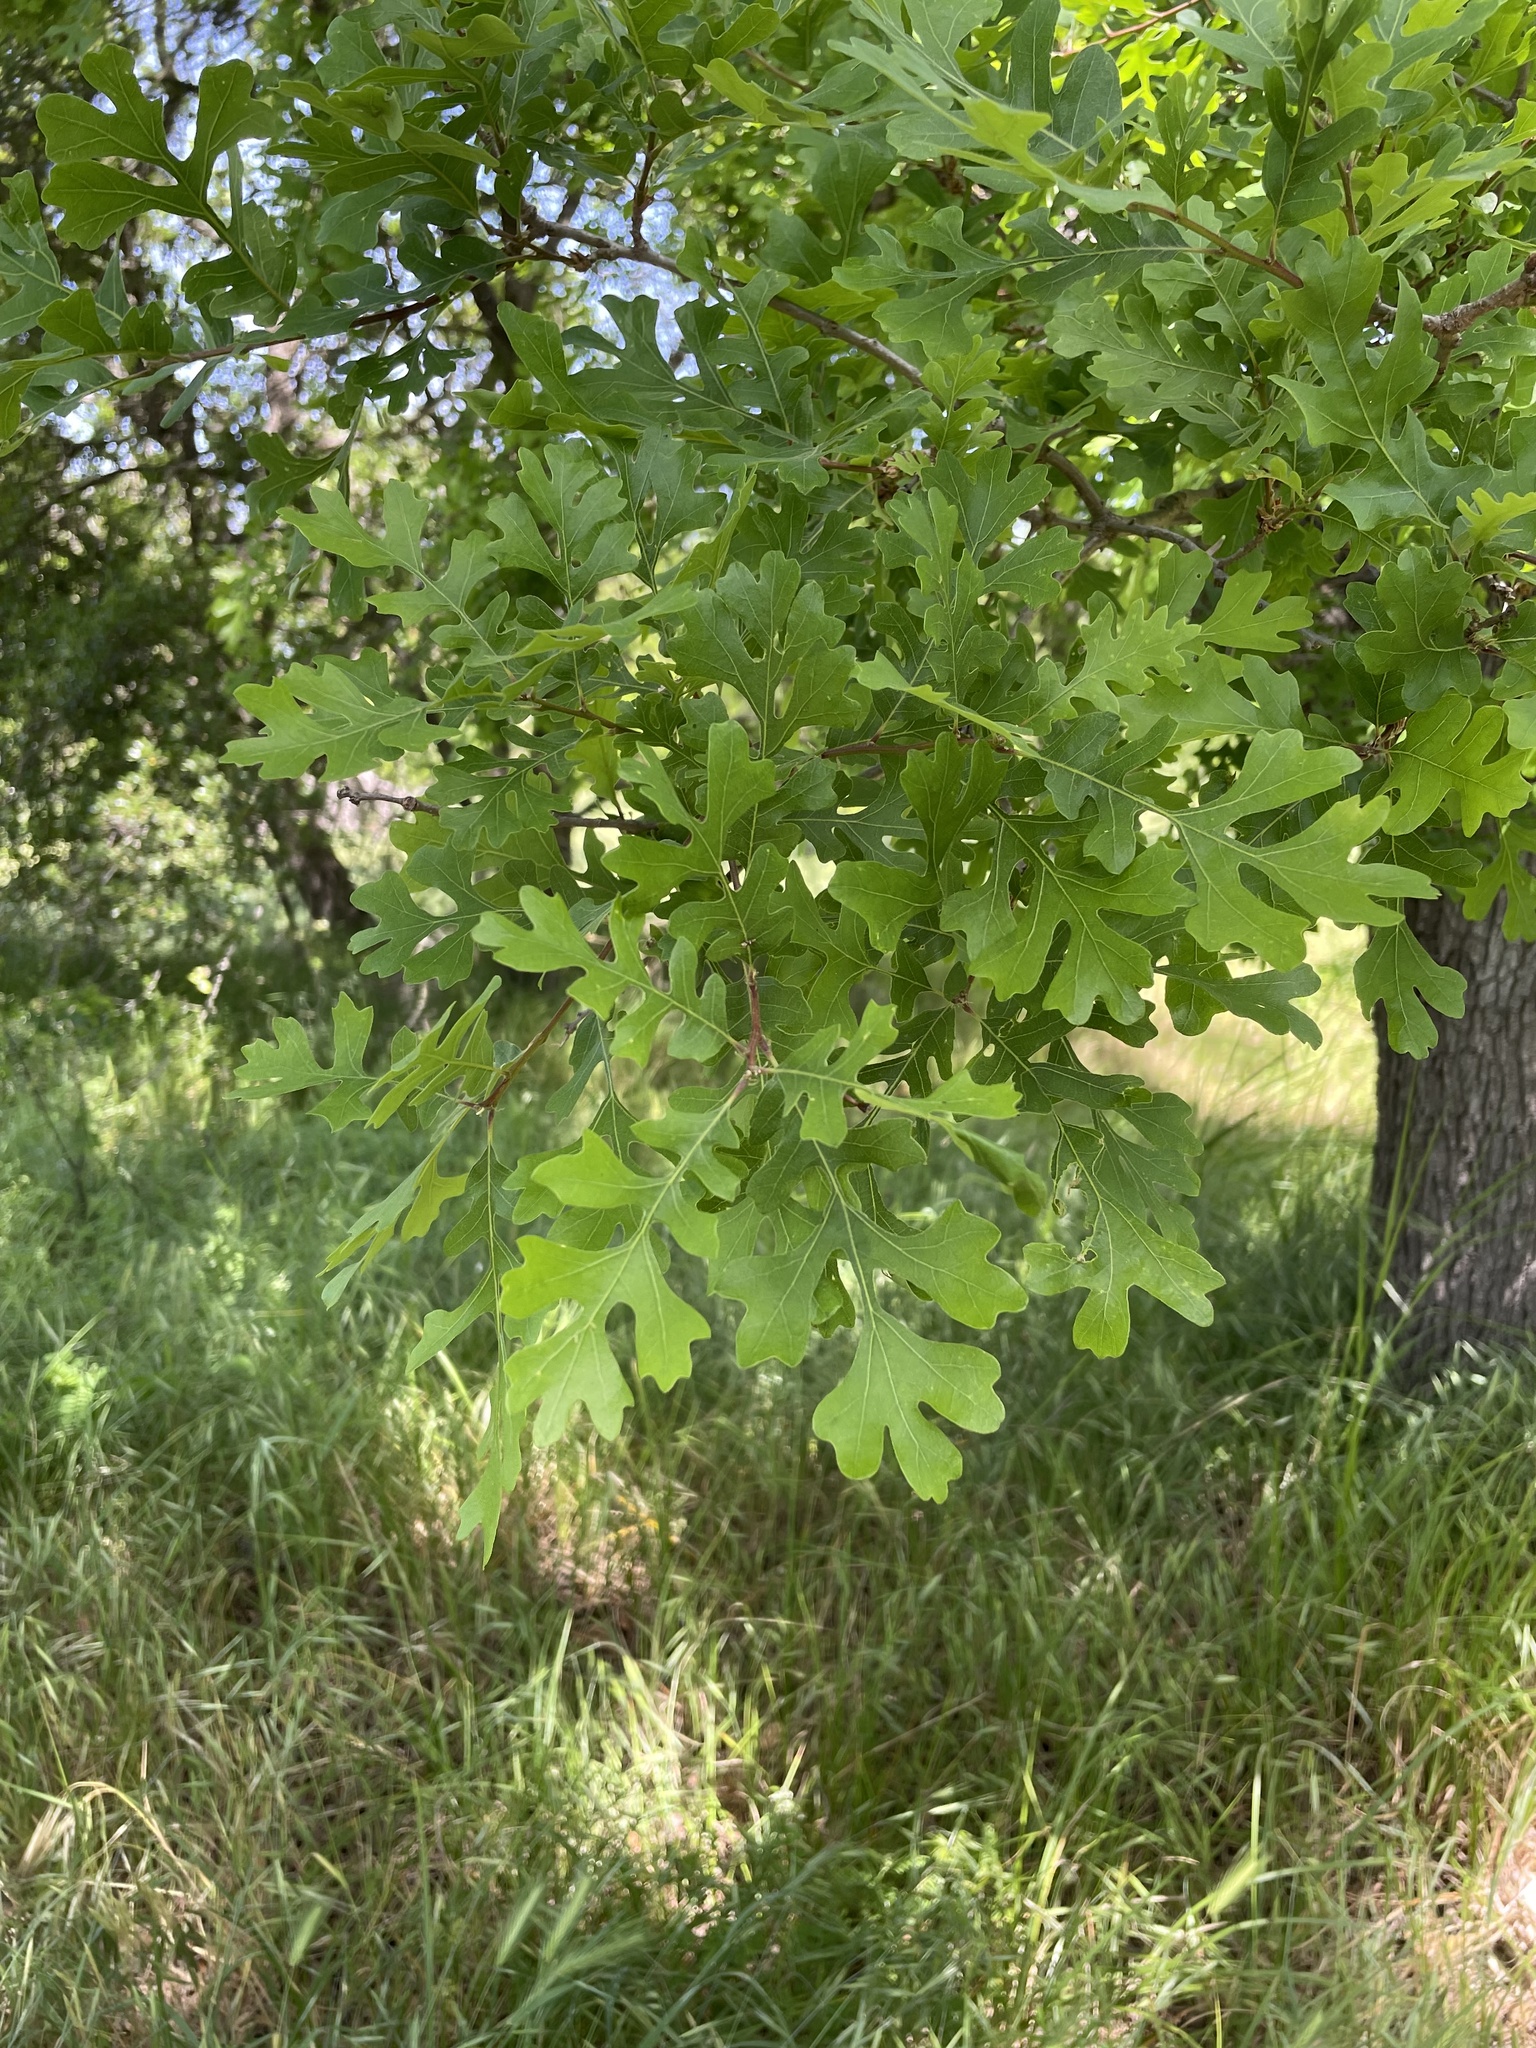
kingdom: Plantae
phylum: Tracheophyta
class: Magnoliopsida
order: Fagales
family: Fagaceae
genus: Quercus
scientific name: Quercus lobata
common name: Valley oak
